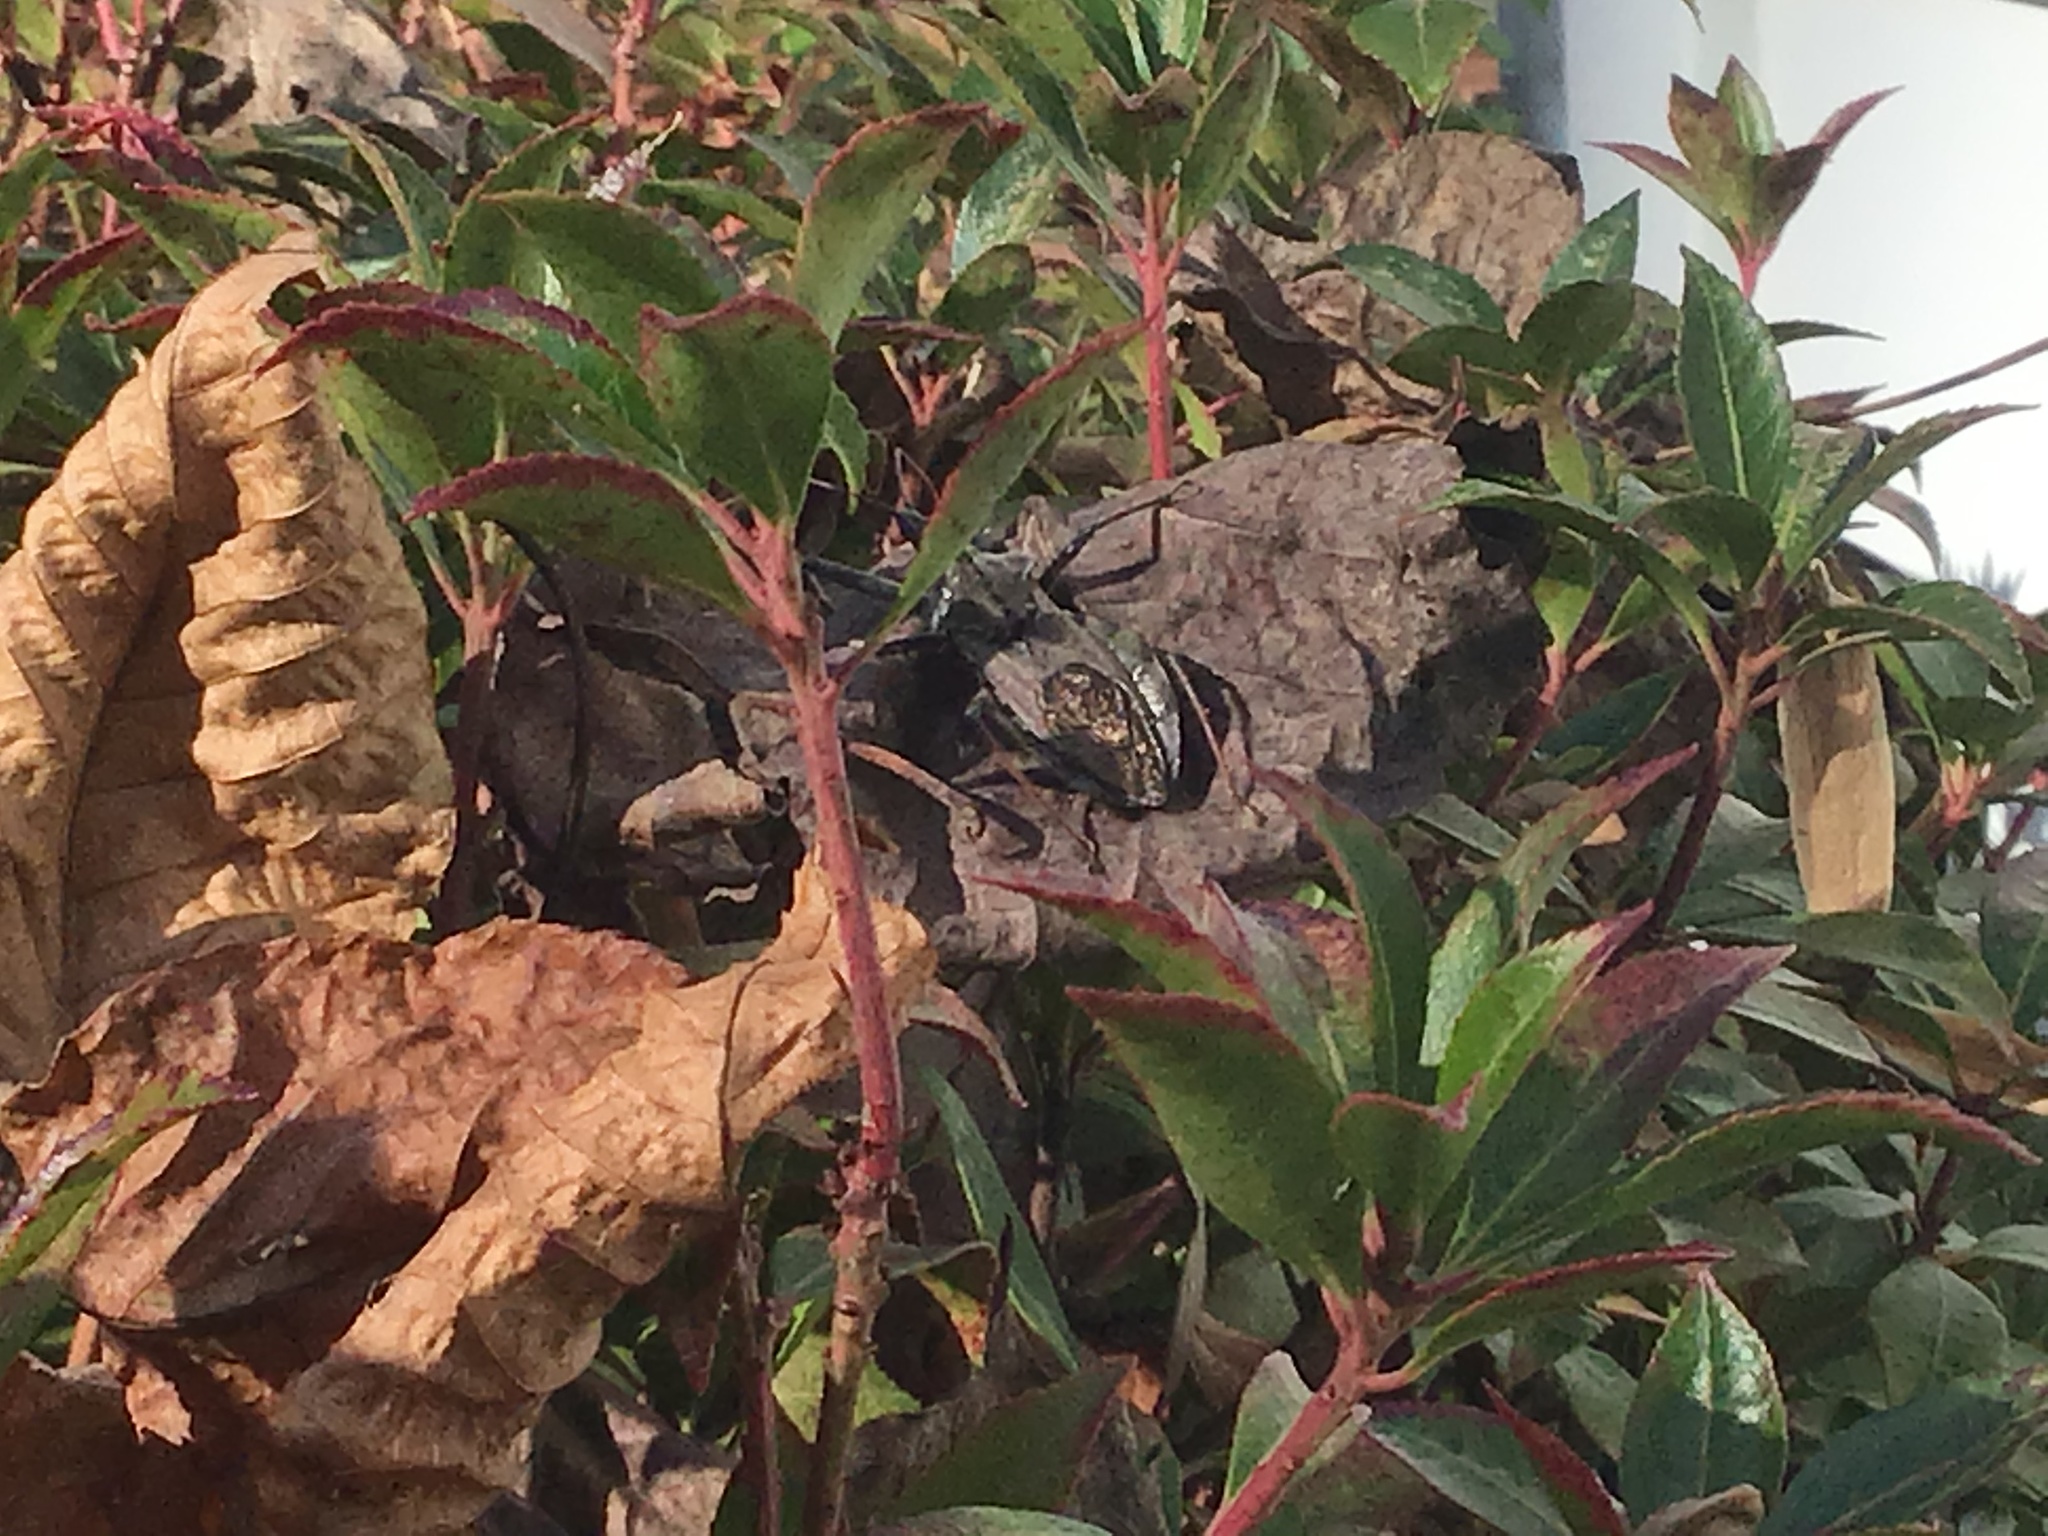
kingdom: Animalia
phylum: Arthropoda
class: Insecta
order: Hemiptera
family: Reduviidae
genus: Arilus
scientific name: Arilus cristatus
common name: North american wheel bug
